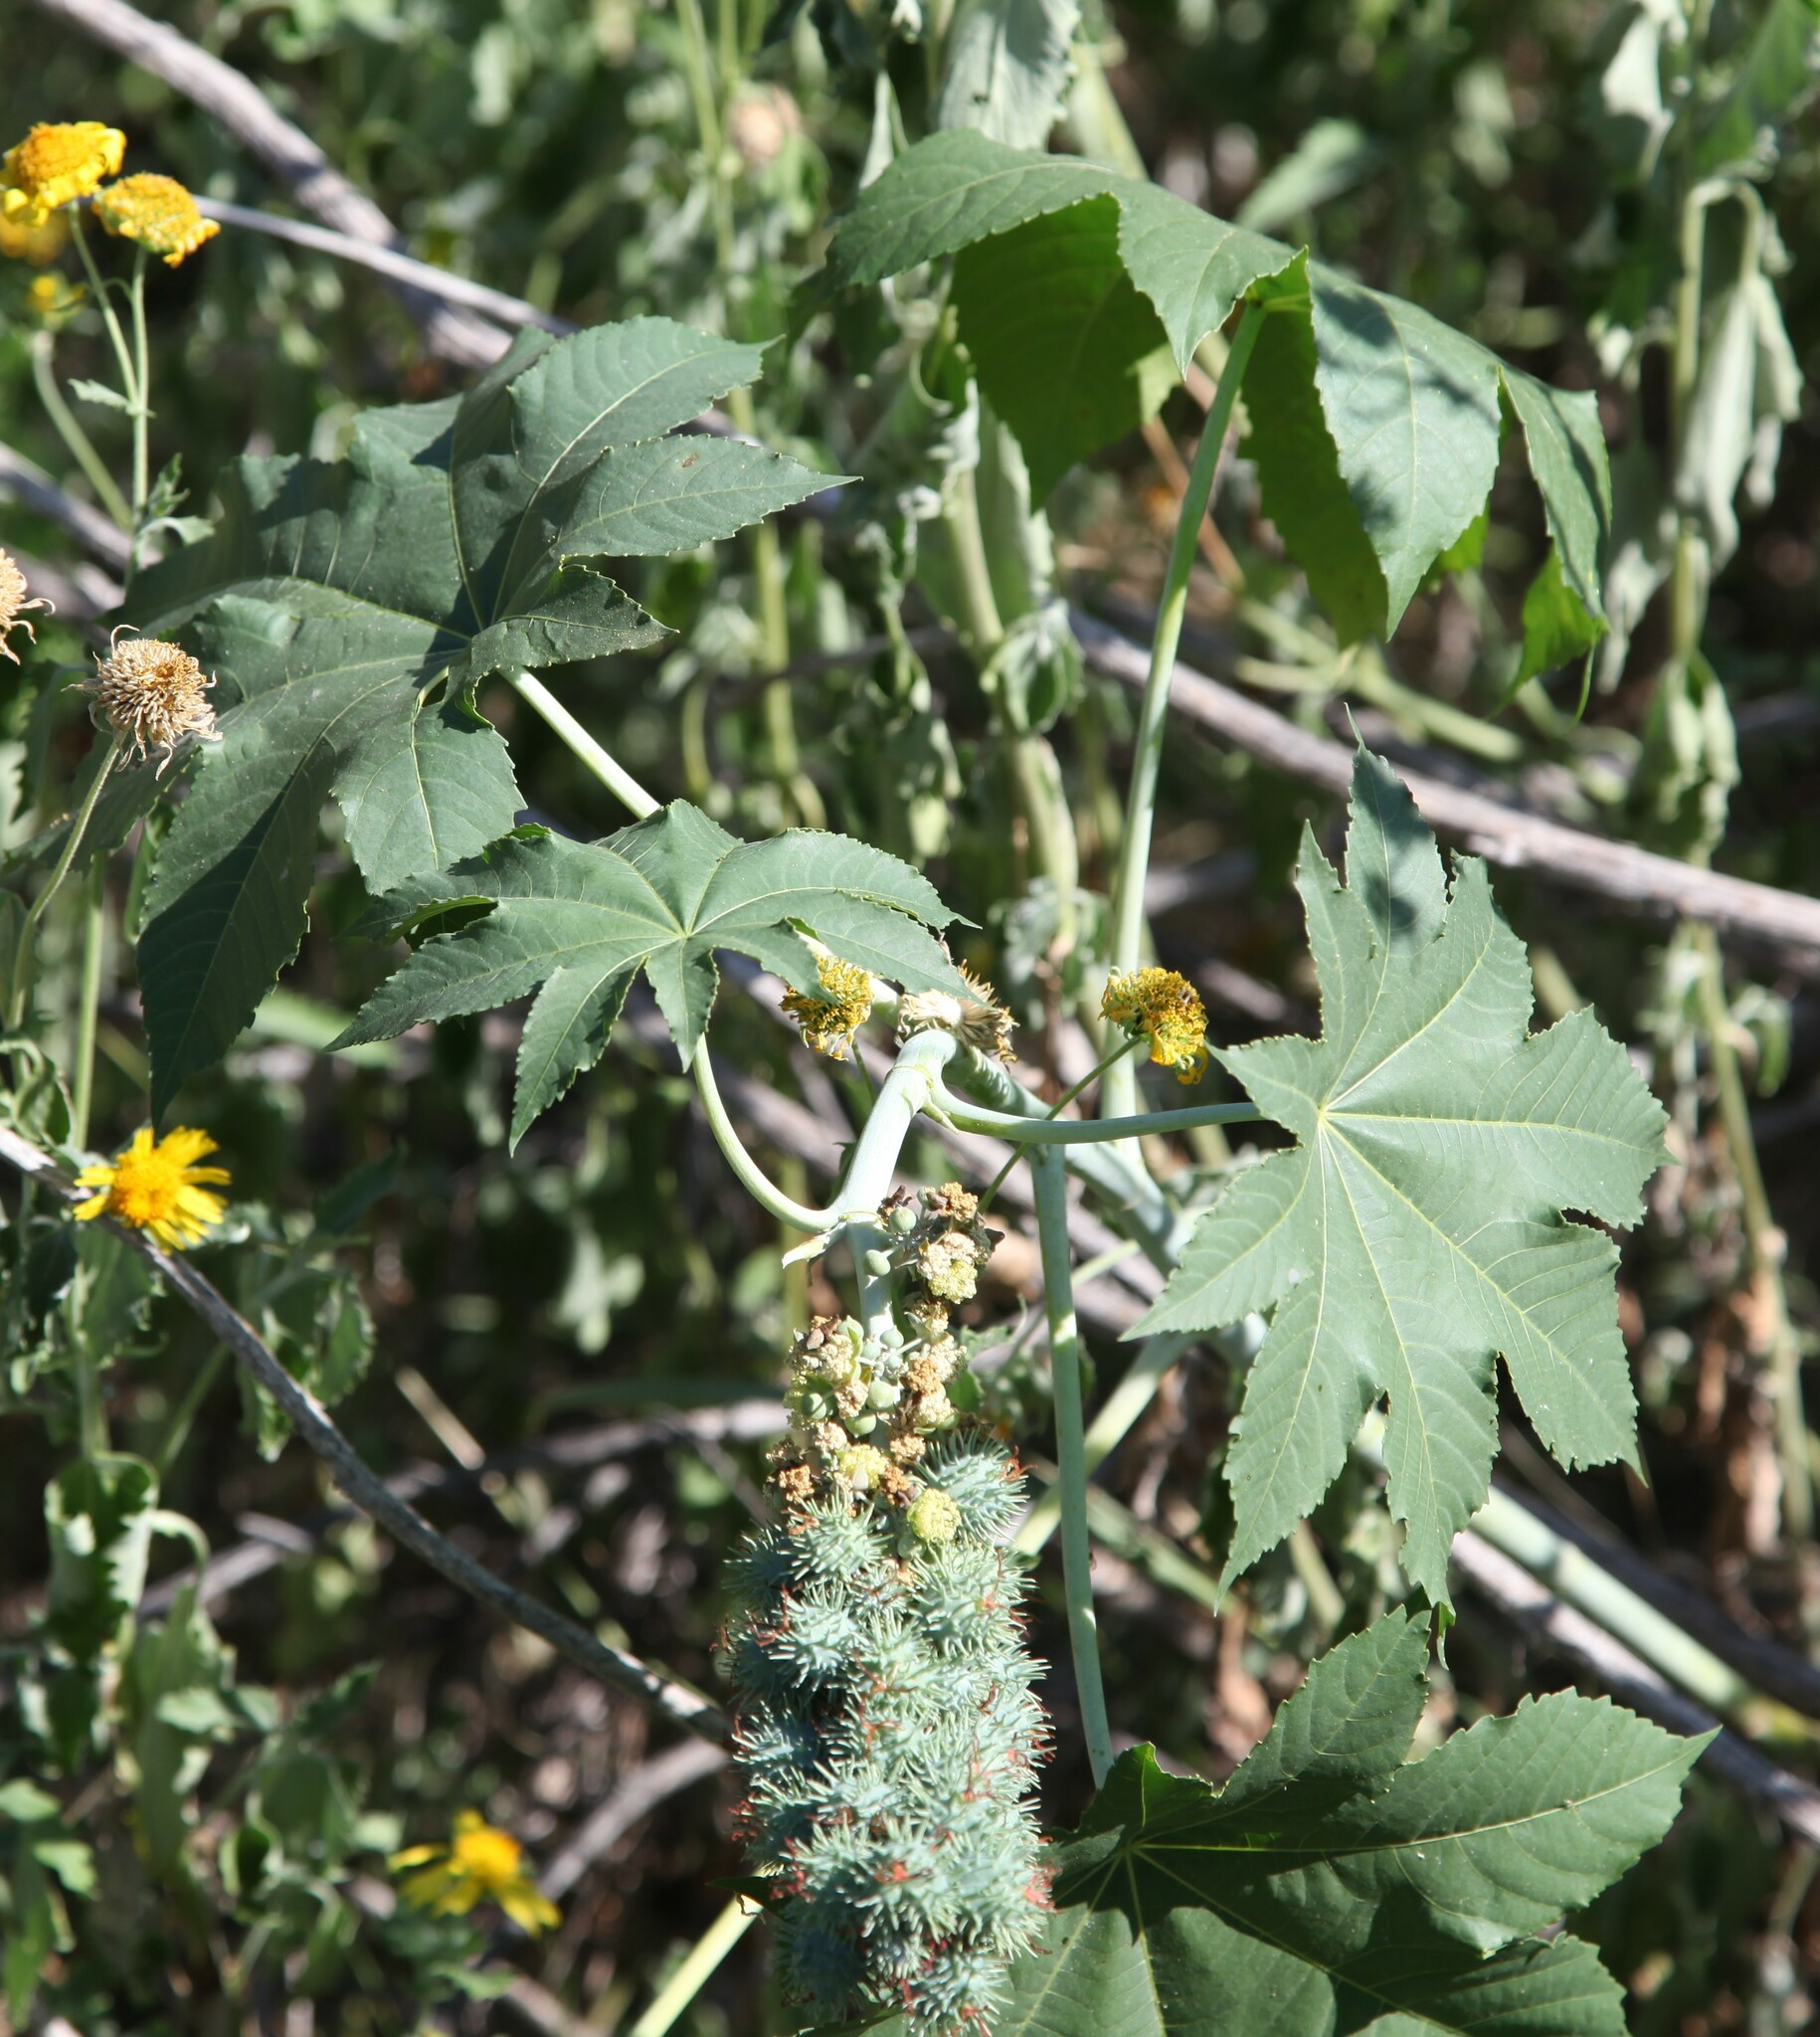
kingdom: Plantae
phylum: Tracheophyta
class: Magnoliopsida
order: Malpighiales
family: Euphorbiaceae
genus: Ricinus
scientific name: Ricinus communis
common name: Castor-oil-plant
